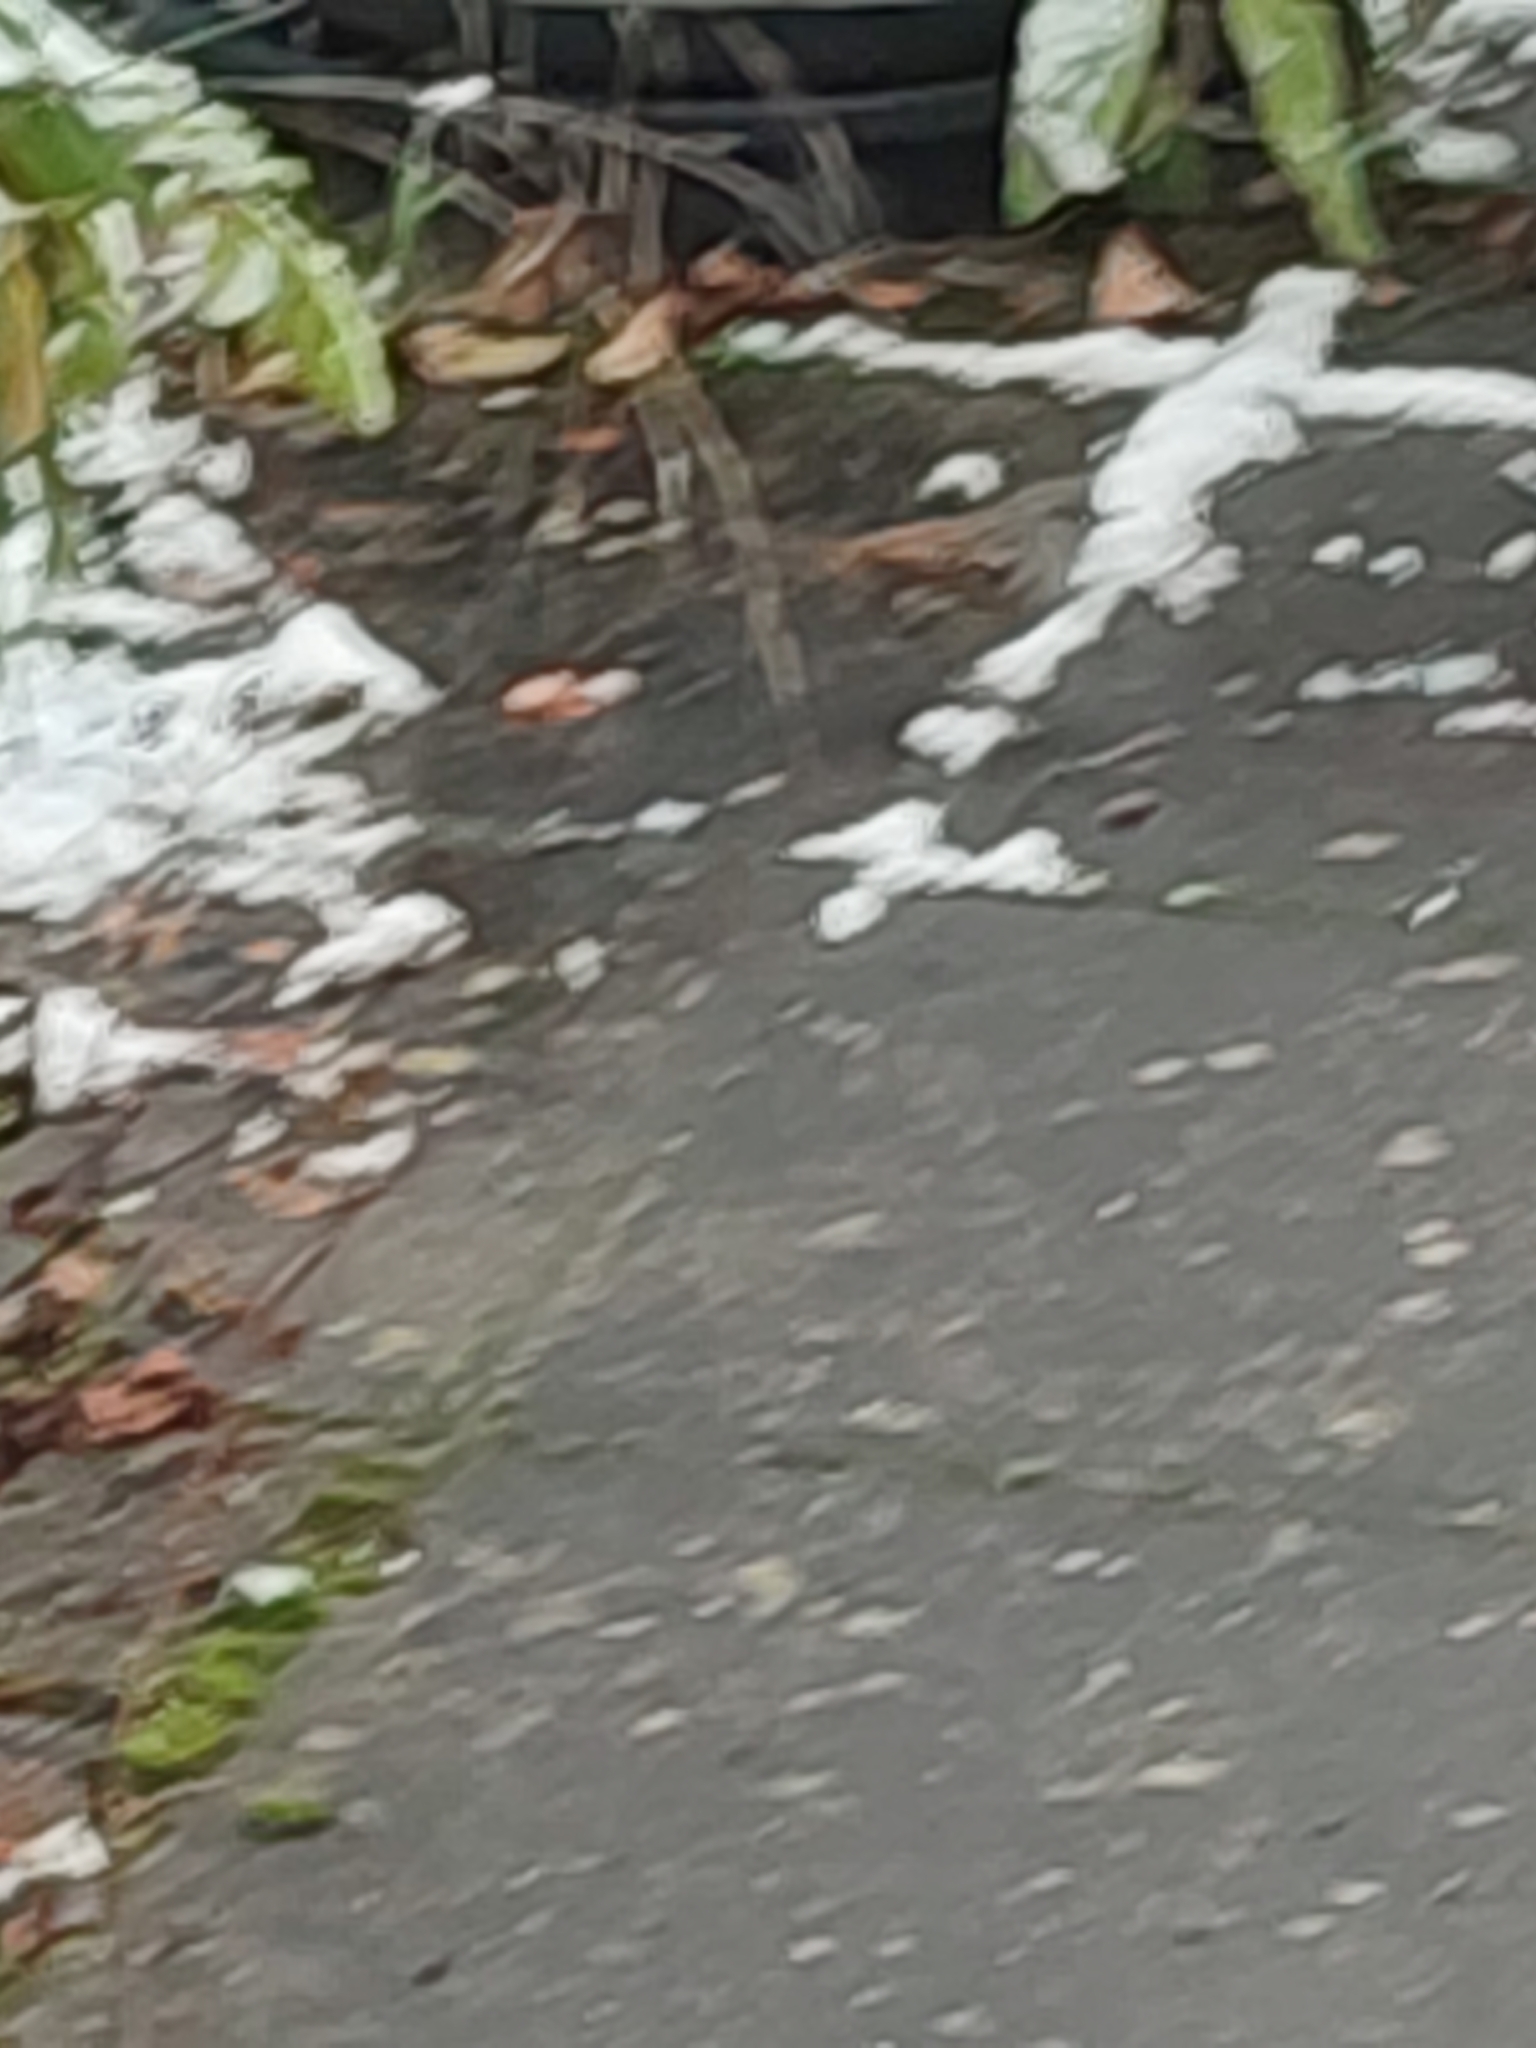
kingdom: Animalia
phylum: Chordata
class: Aves
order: Passeriformes
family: Prunellidae
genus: Prunella
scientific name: Prunella modularis
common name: Dunnock
